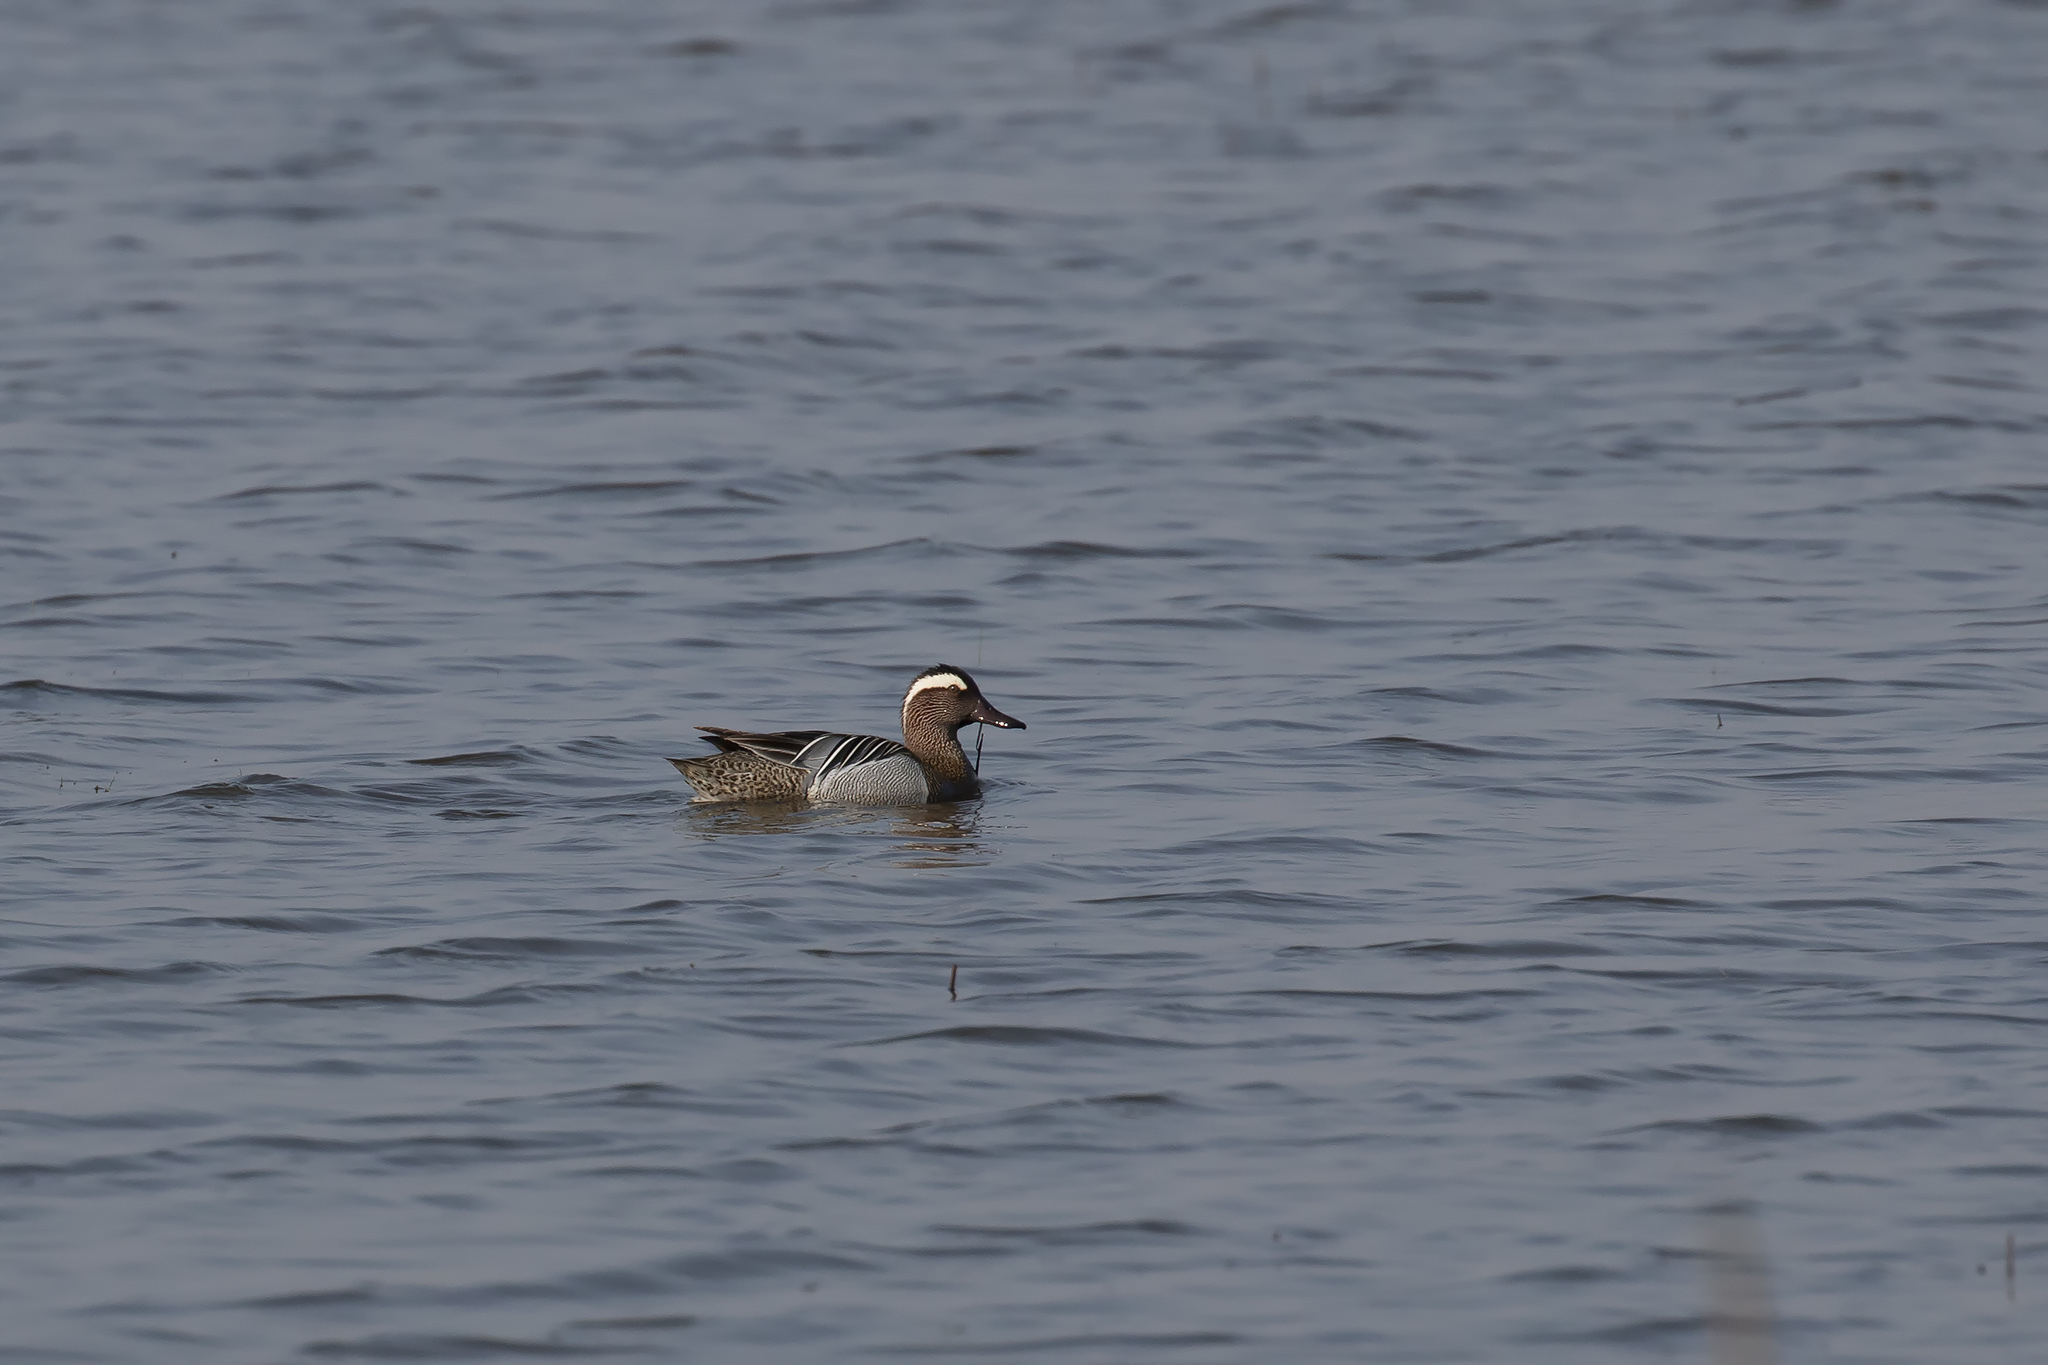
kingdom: Animalia
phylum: Chordata
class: Aves
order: Anseriformes
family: Anatidae
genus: Spatula
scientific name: Spatula querquedula
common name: Garganey
